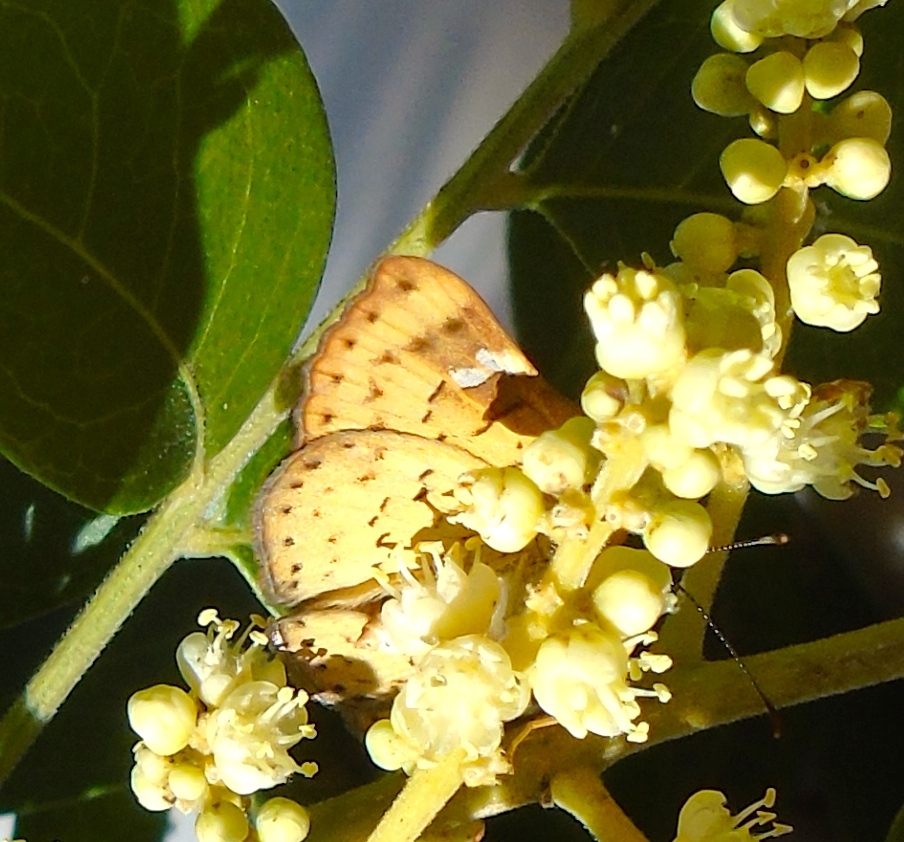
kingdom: Animalia
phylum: Arthropoda
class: Insecta
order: Lepidoptera
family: Riodinidae
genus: Curvie
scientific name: Curvie emesia
